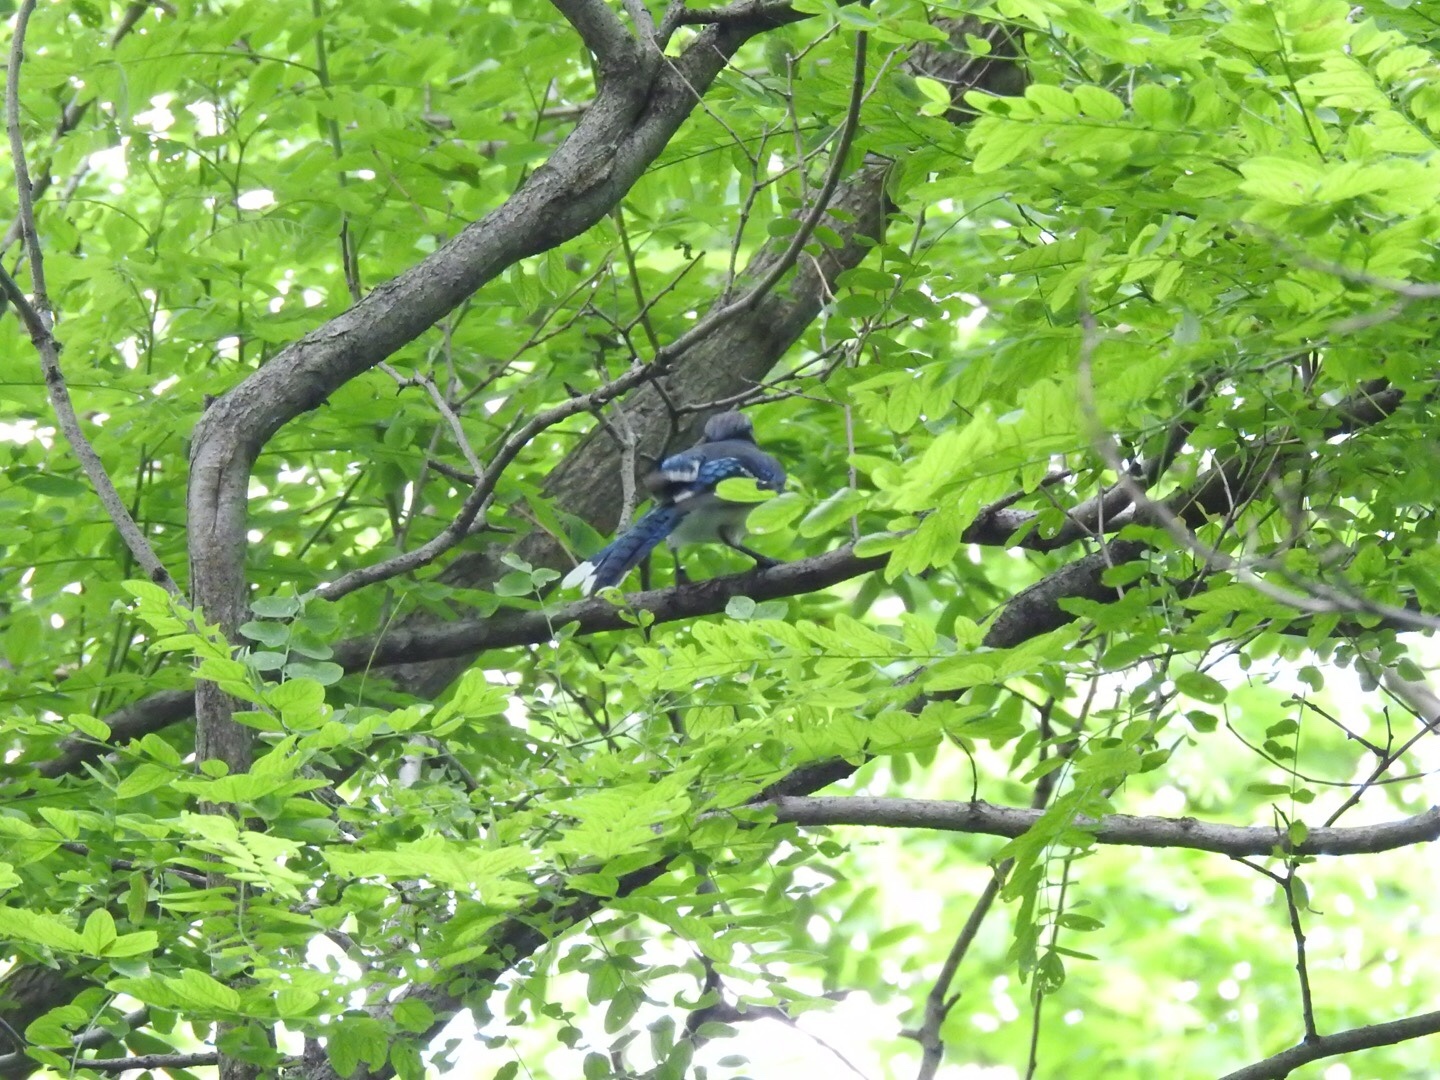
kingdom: Animalia
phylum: Chordata
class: Aves
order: Passeriformes
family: Corvidae
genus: Cyanocitta
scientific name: Cyanocitta cristata
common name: Blue jay
